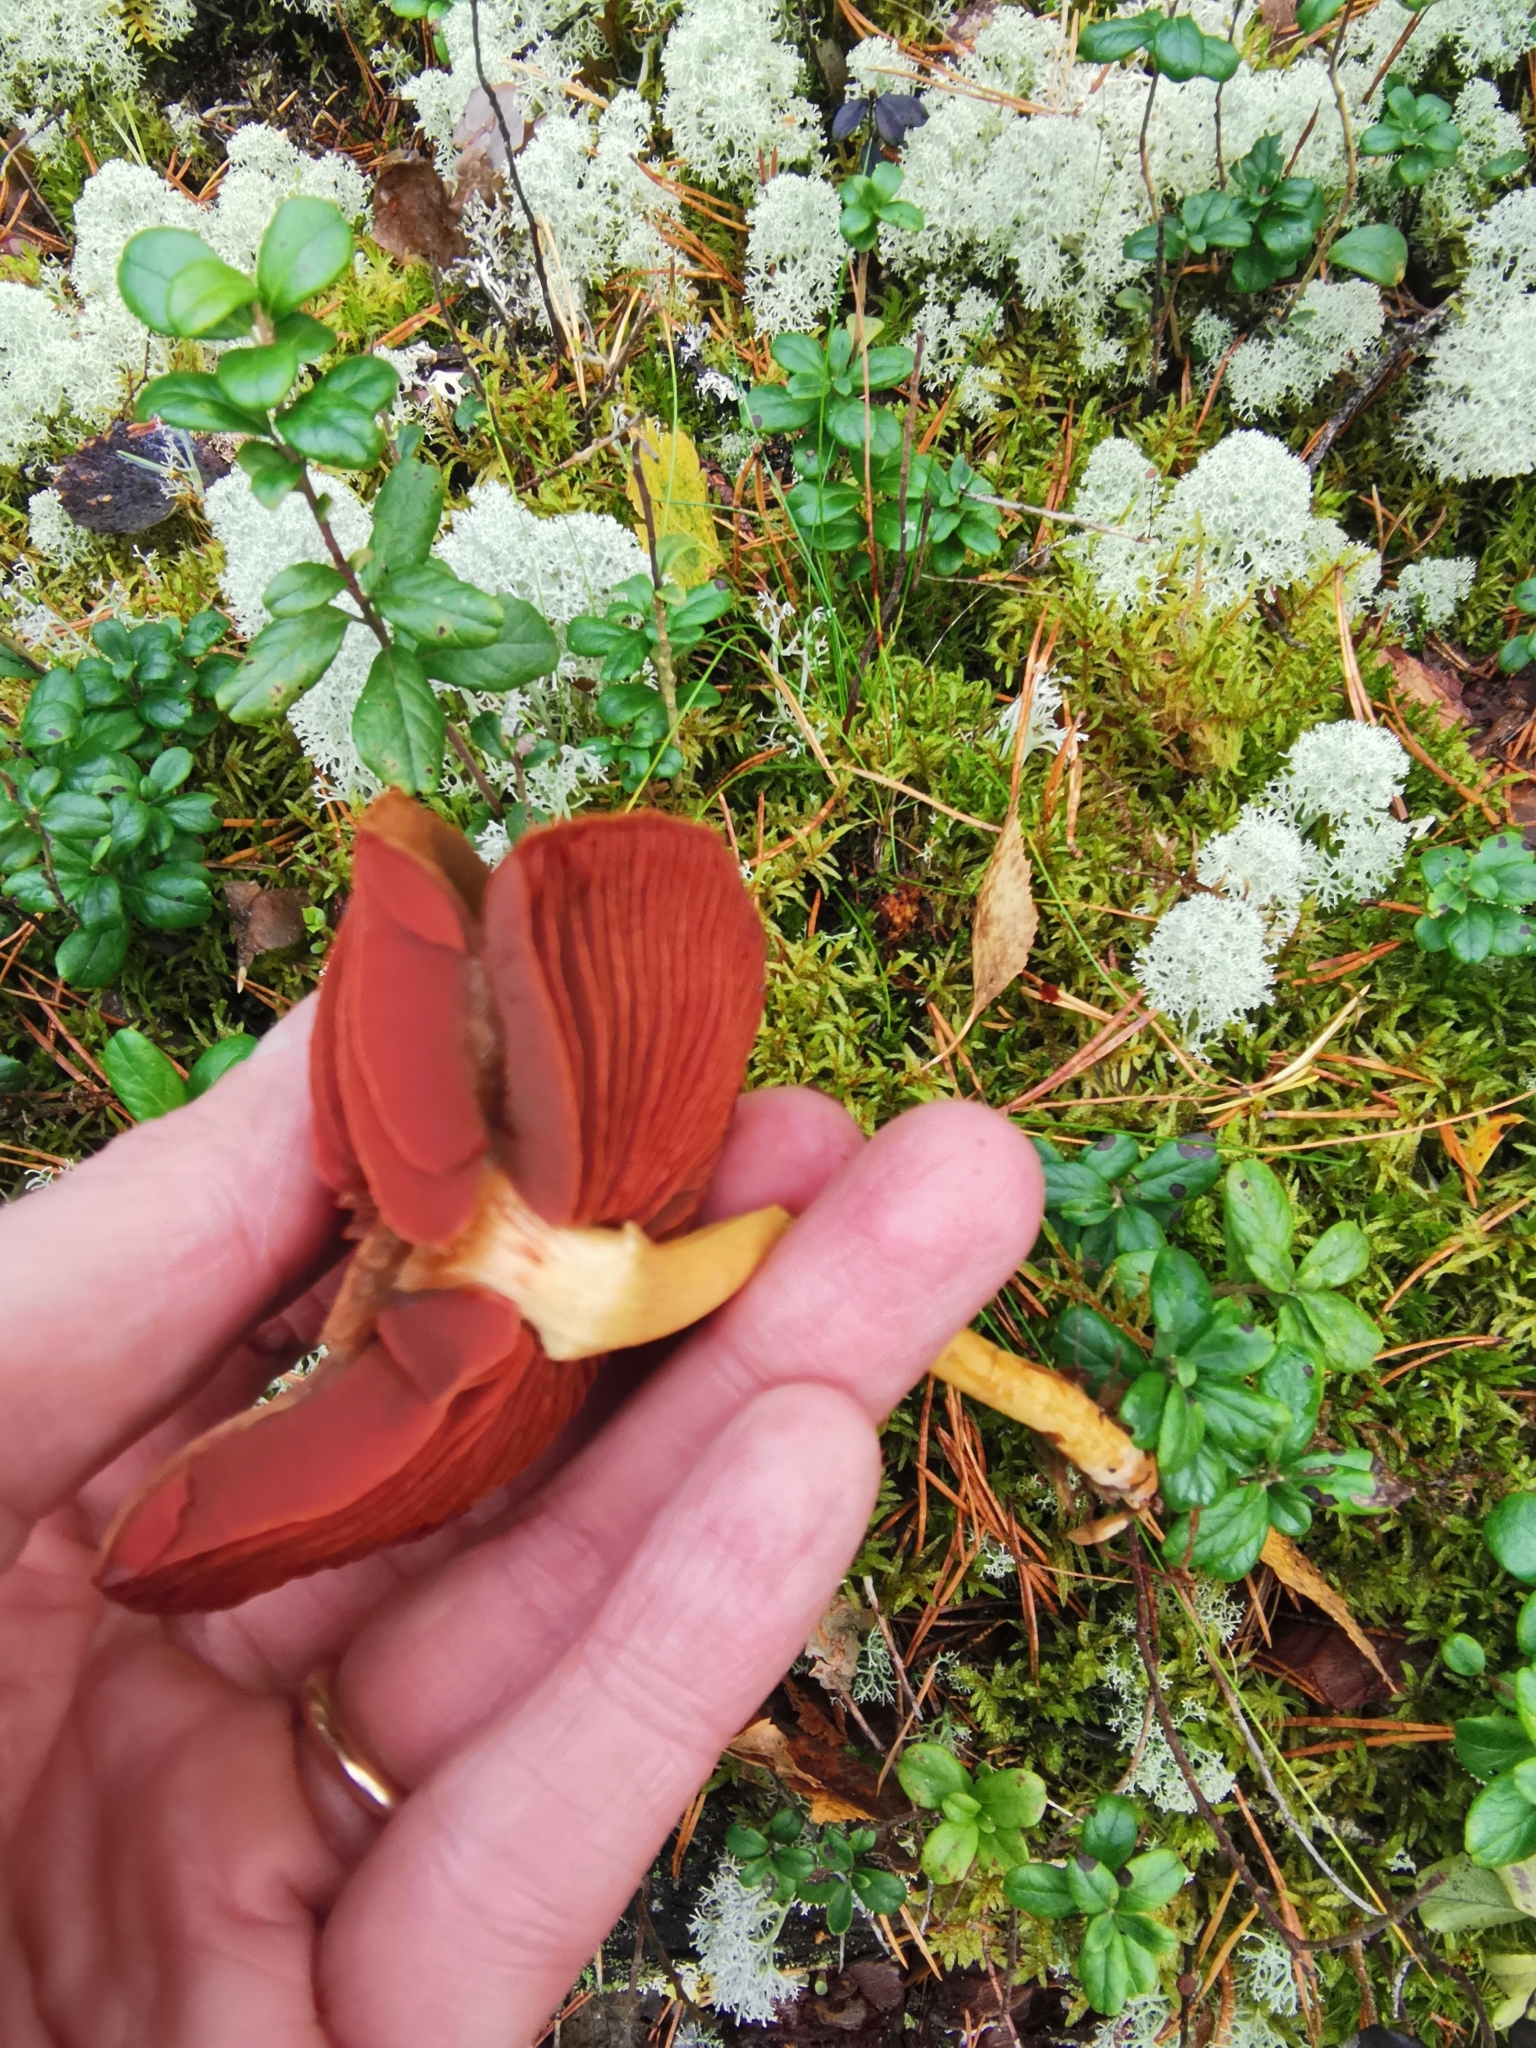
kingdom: Fungi
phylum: Basidiomycota
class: Agaricomycetes
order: Agaricales
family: Cortinariaceae
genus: Cortinarius
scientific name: Cortinarius semisanguineus
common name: Surprise webcap
